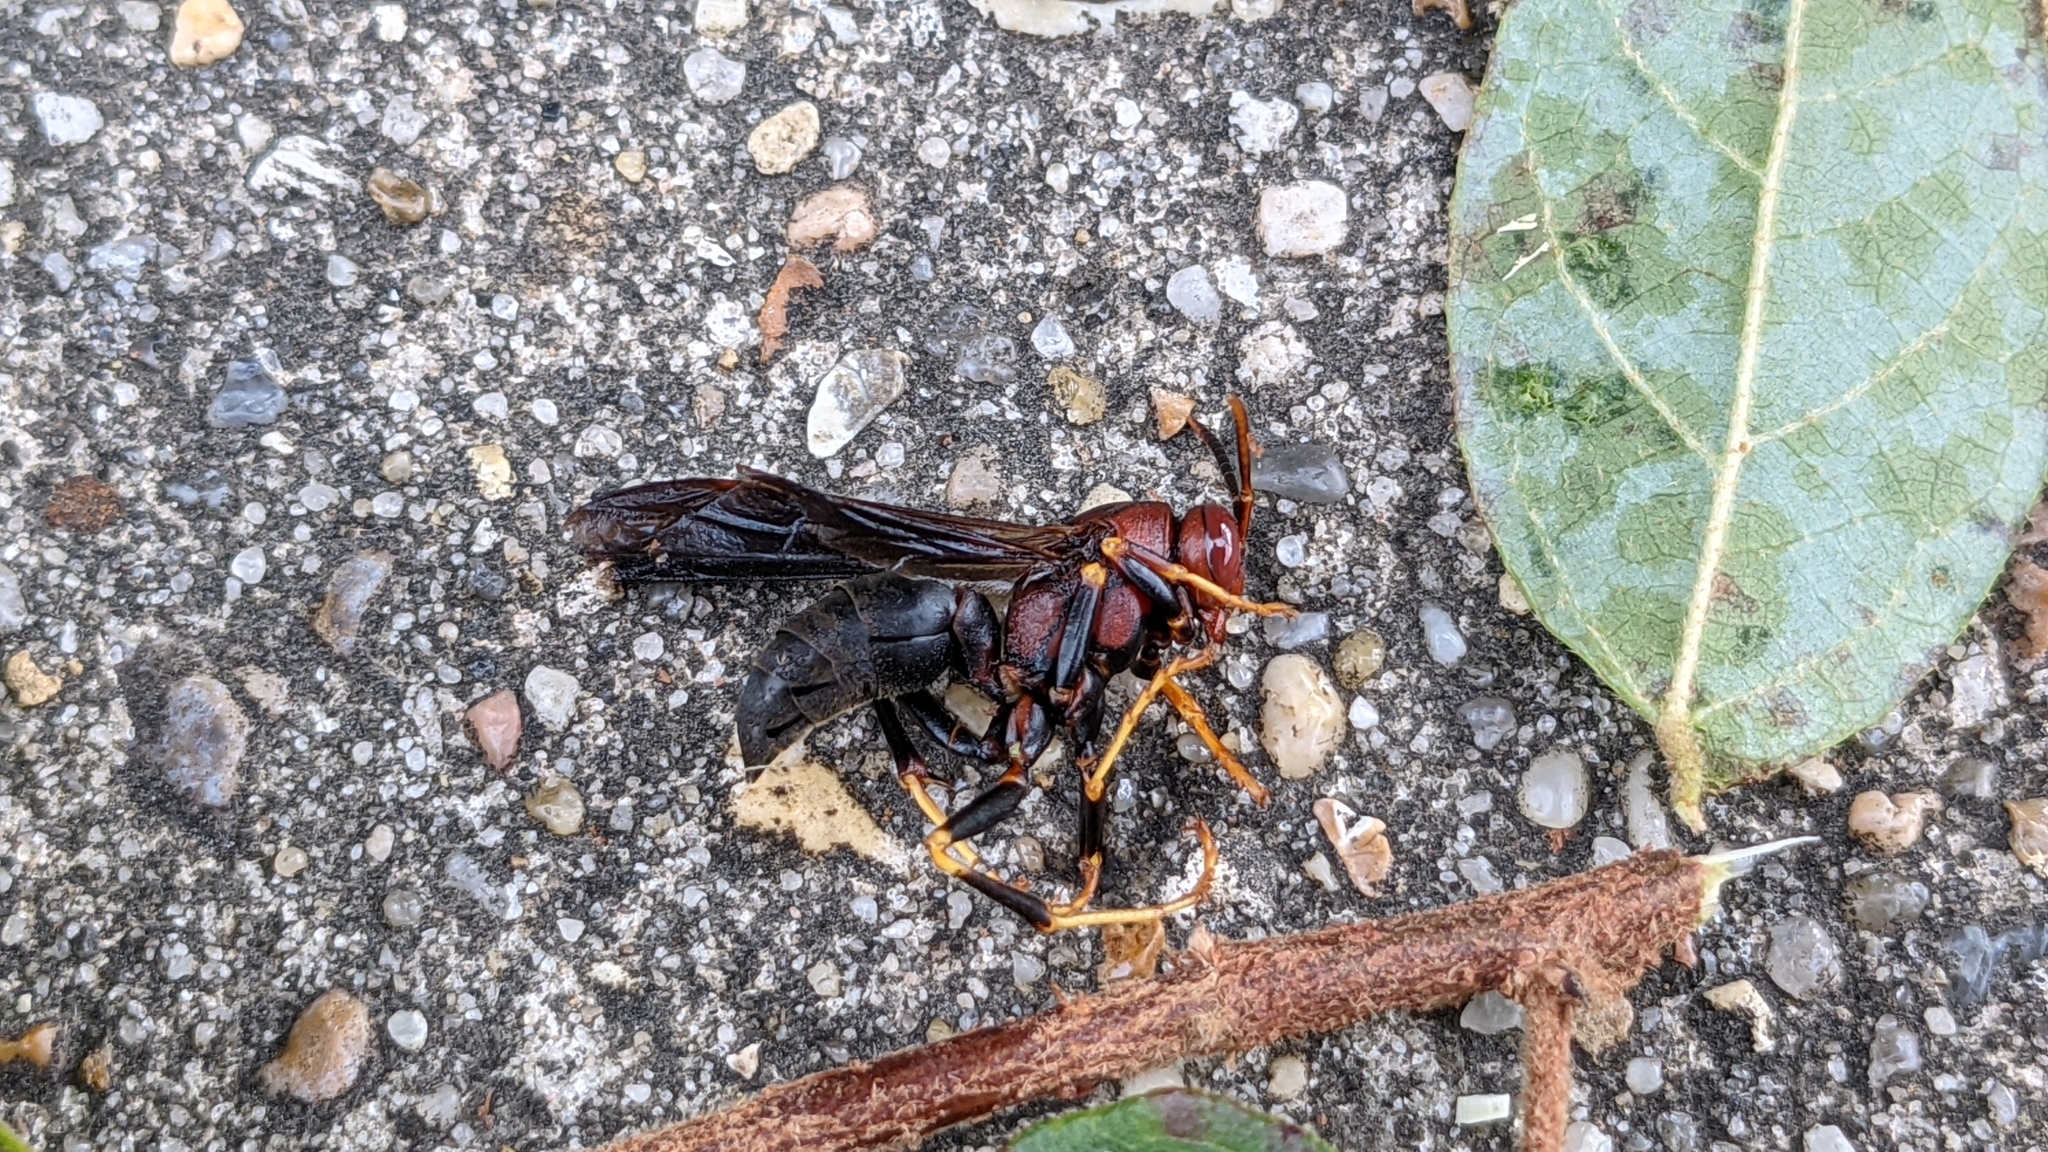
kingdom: Animalia
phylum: Arthropoda
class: Insecta
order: Hymenoptera
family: Eumenidae
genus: Polistes
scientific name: Polistes metricus
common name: Metric paper wasp
